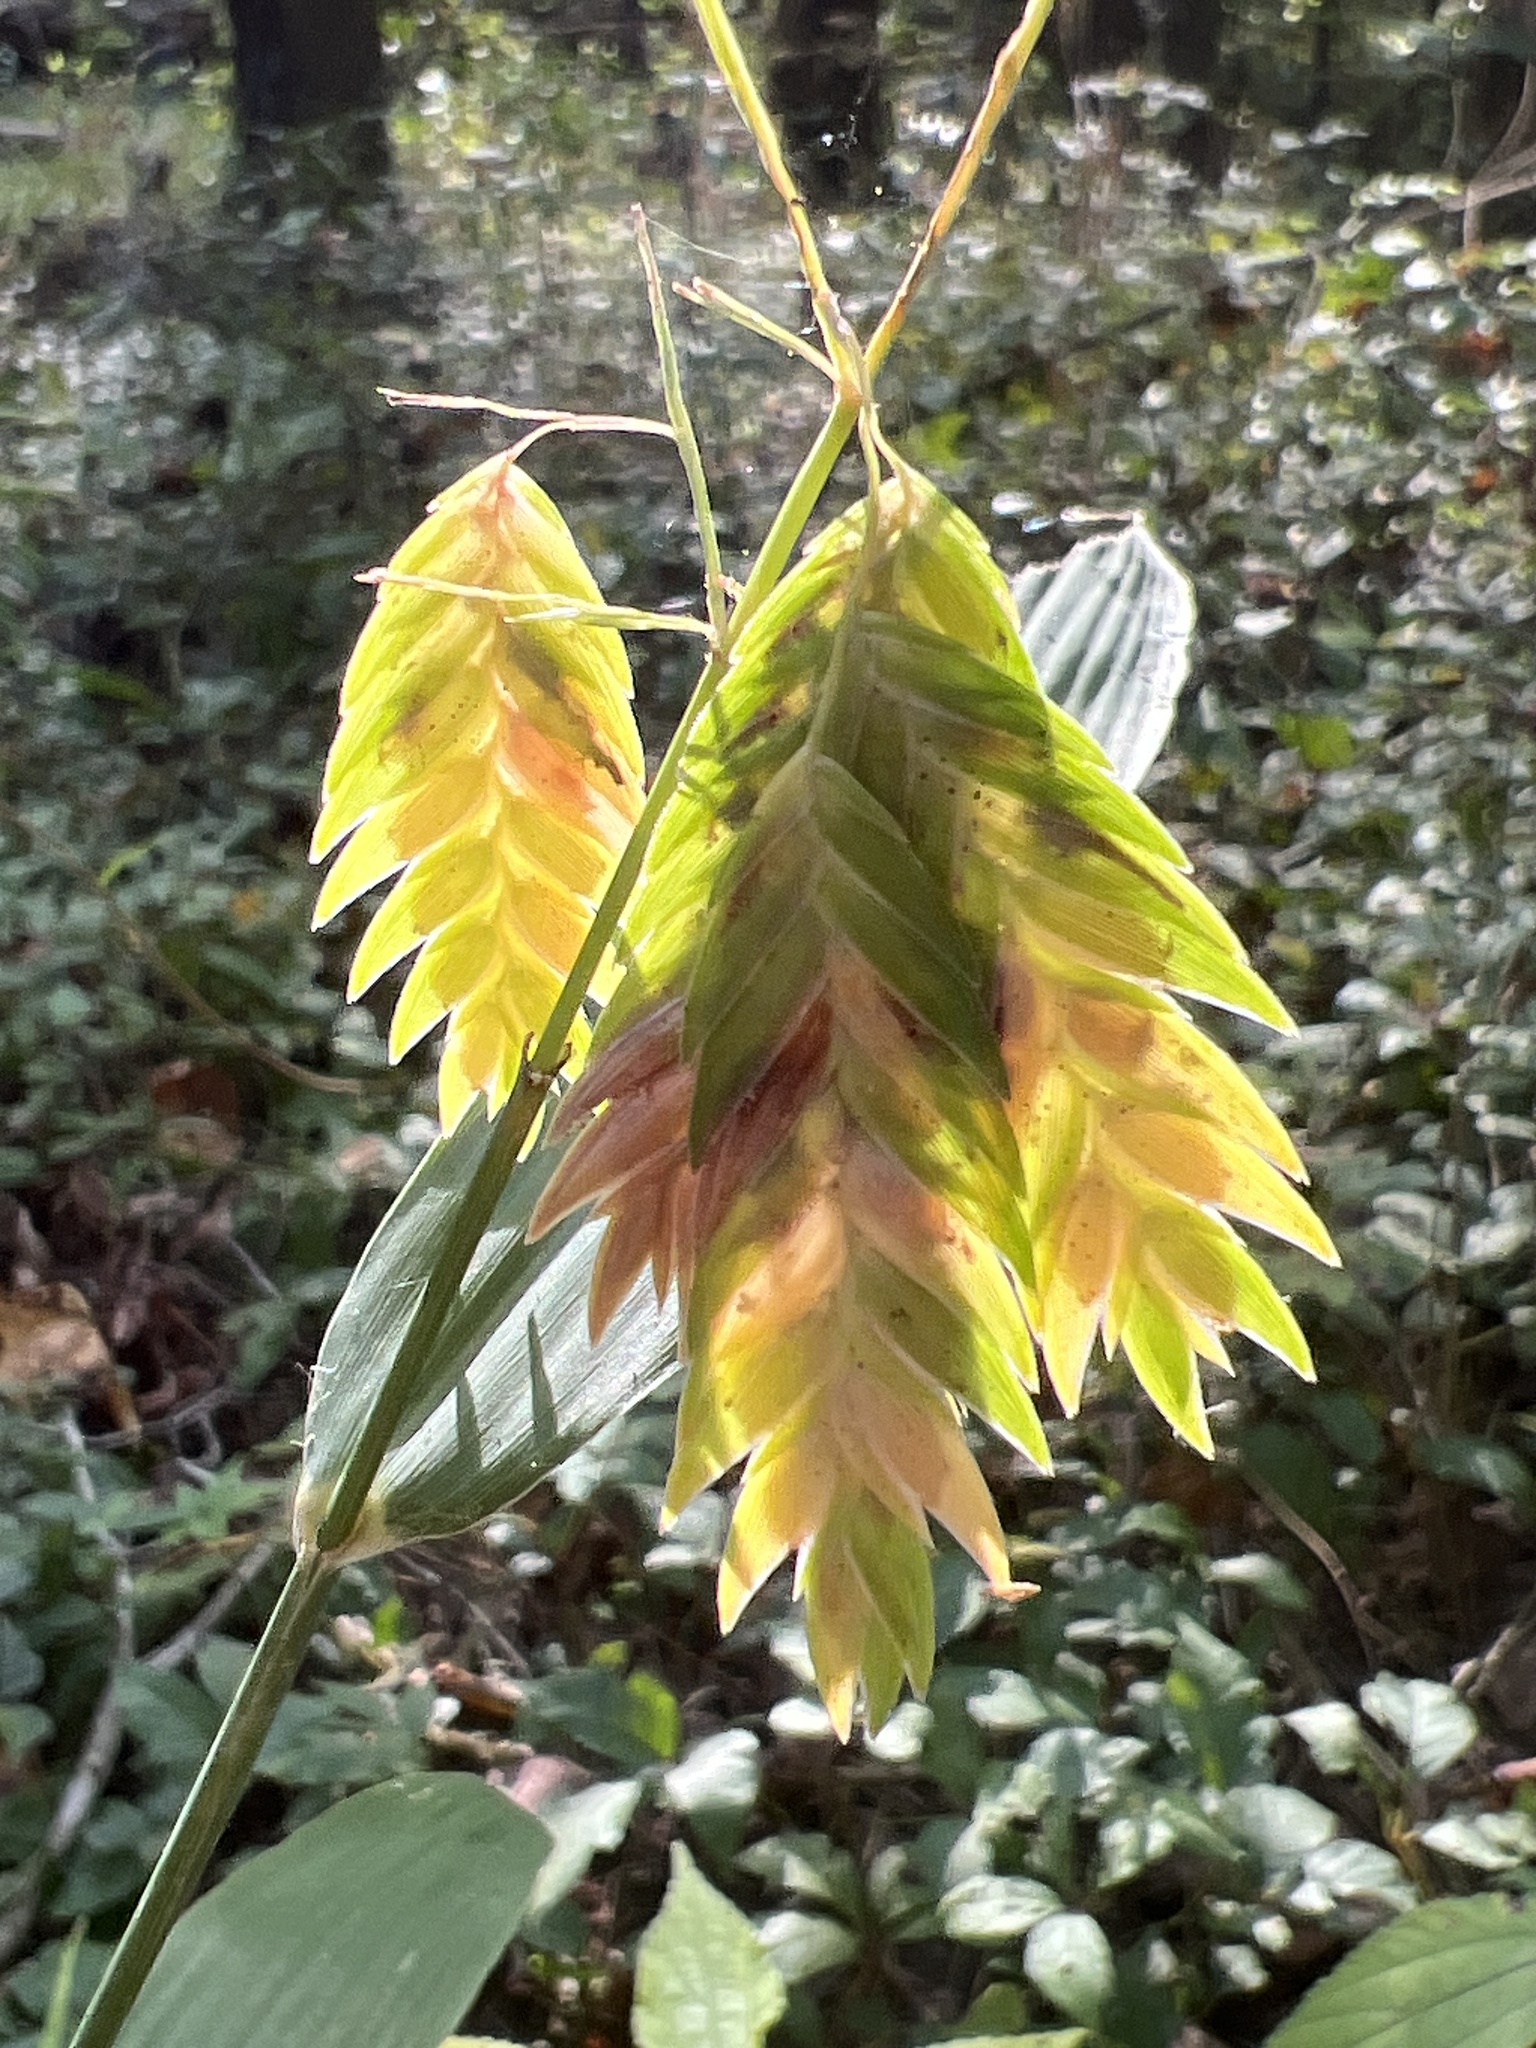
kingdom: Plantae
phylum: Tracheophyta
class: Liliopsida
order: Poales
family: Poaceae
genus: Chasmanthium
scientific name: Chasmanthium latifolium
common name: Broad-leaved chasmanthium
